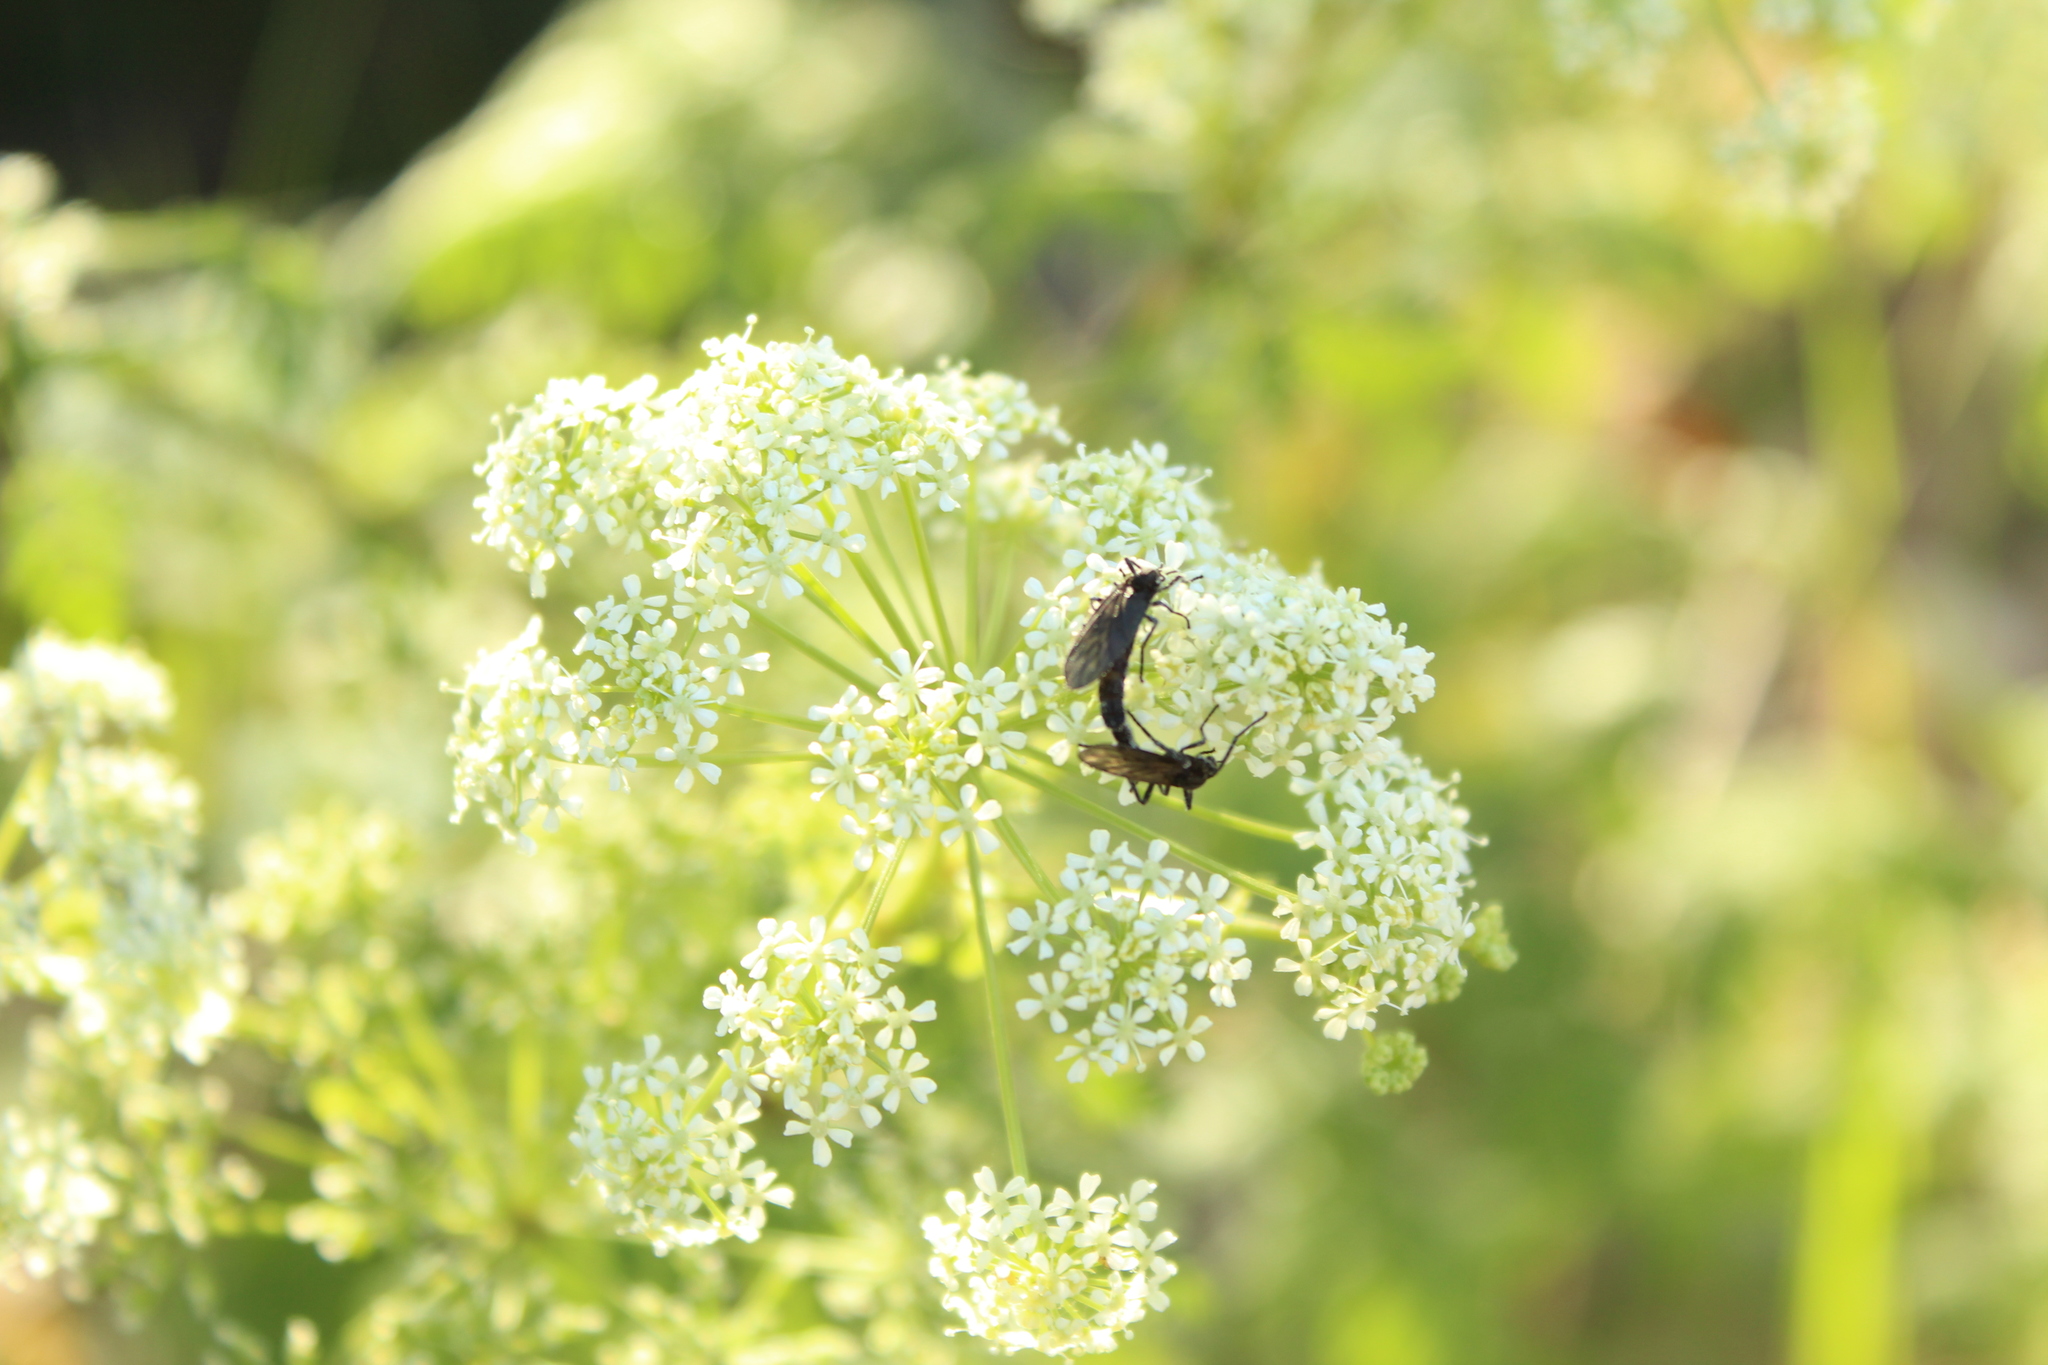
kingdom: Plantae
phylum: Tracheophyta
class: Magnoliopsida
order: Apiales
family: Apiaceae
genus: Conium
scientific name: Conium maculatum
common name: Hemlock
